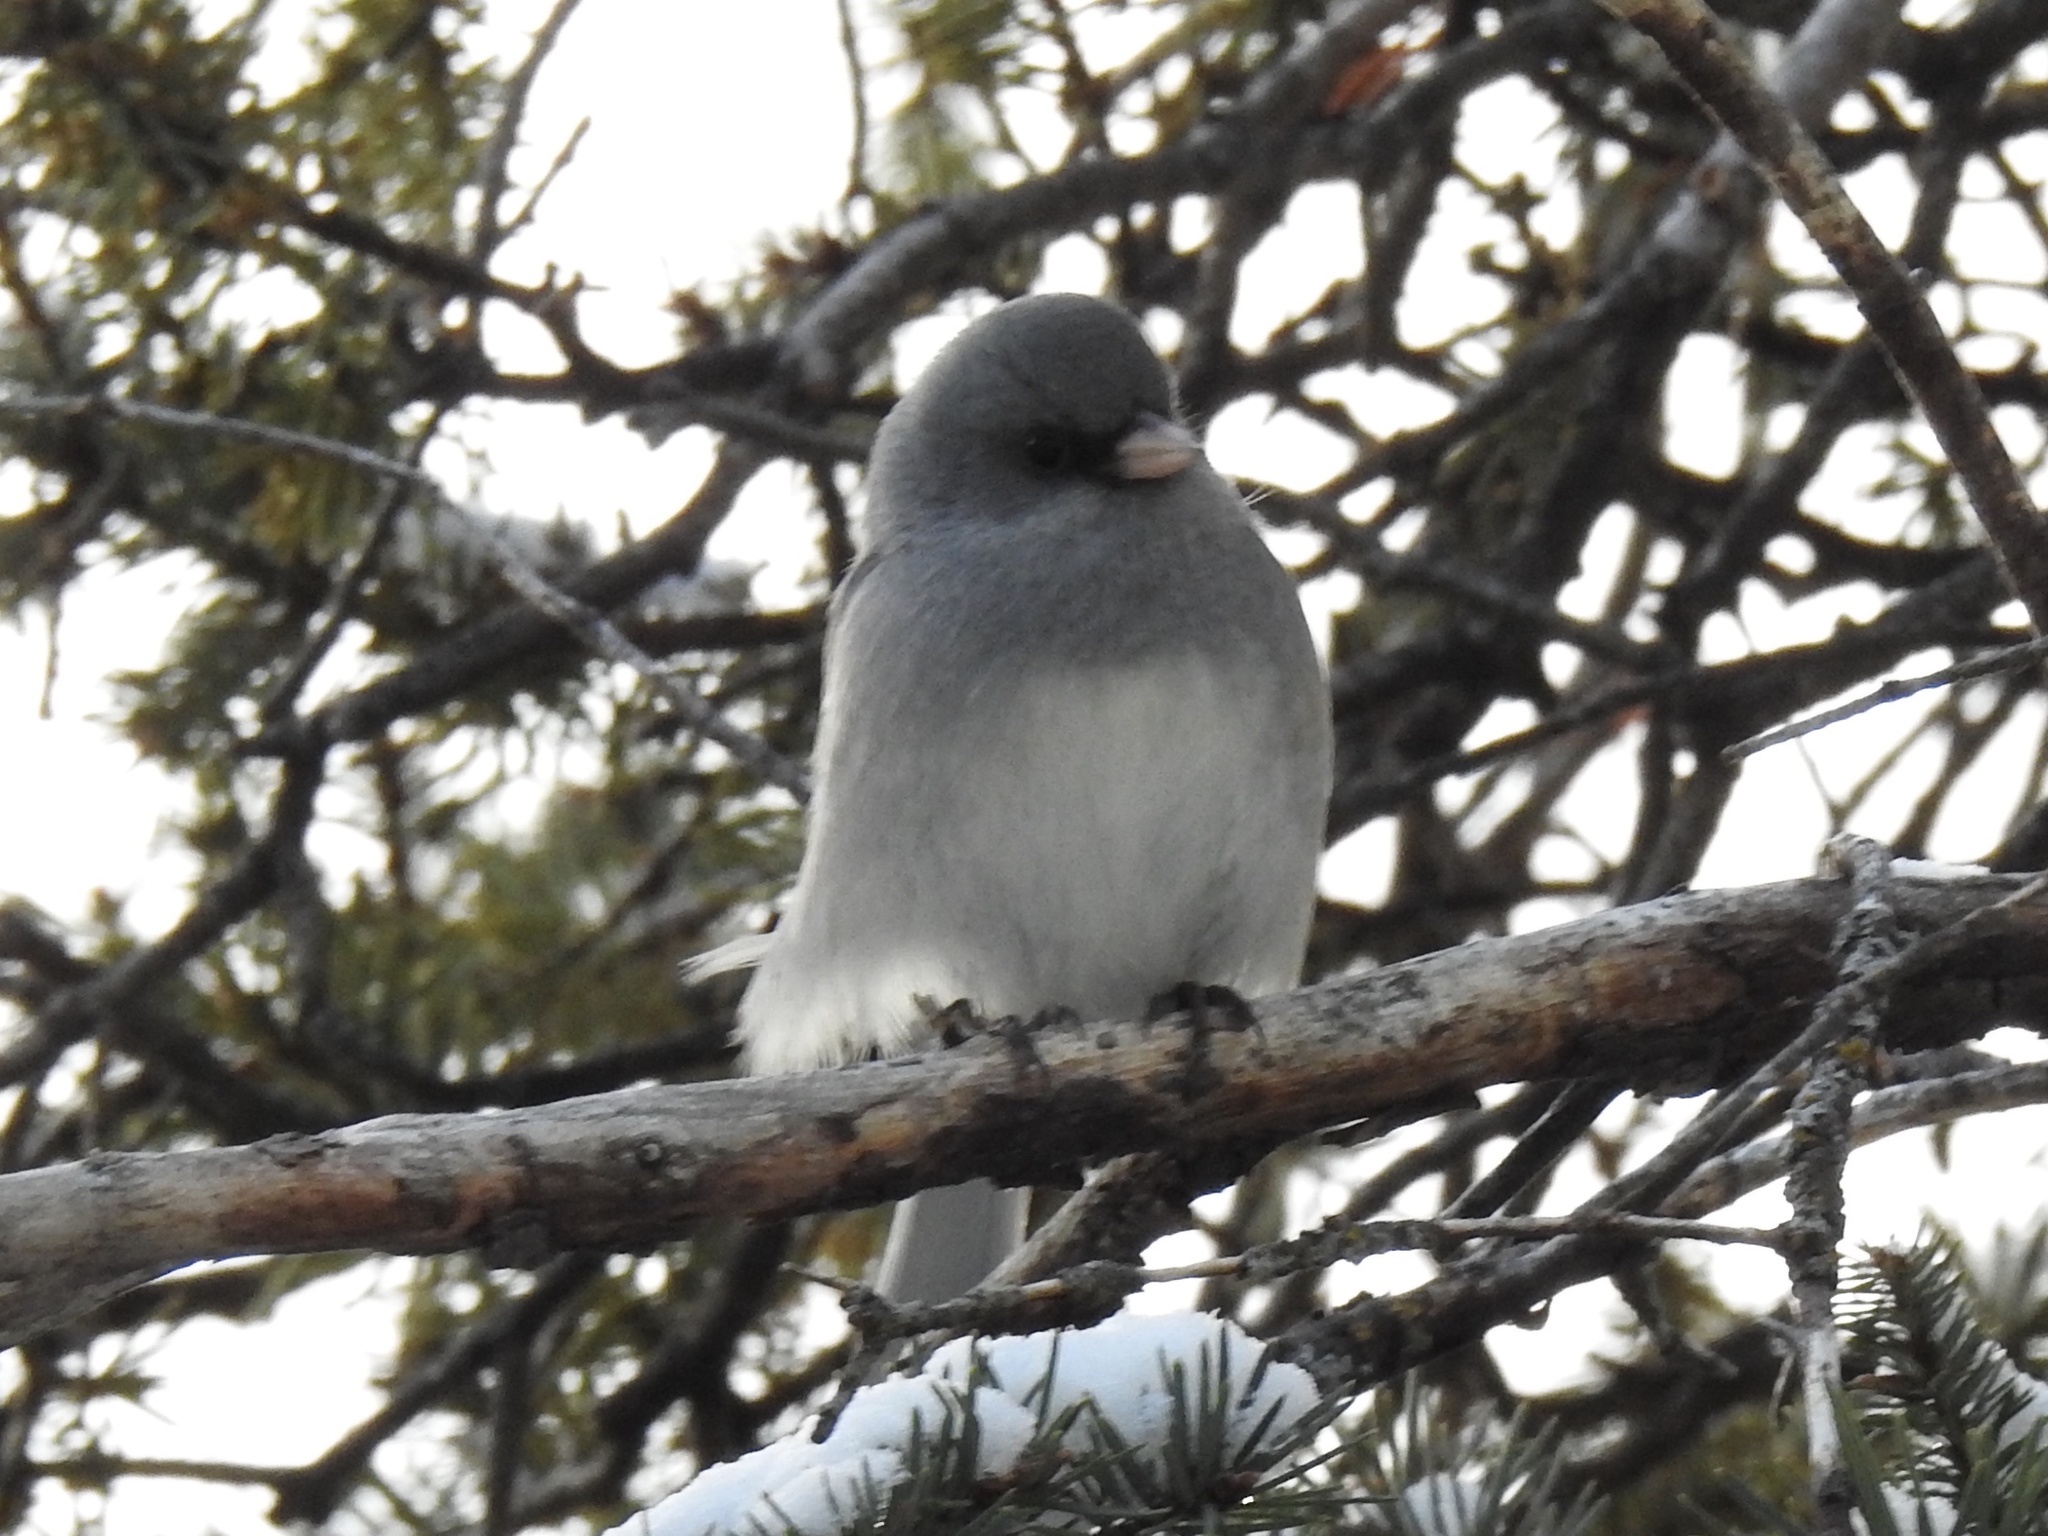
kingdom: Animalia
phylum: Chordata
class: Aves
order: Passeriformes
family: Passerellidae
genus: Junco
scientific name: Junco hyemalis
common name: Dark-eyed junco
